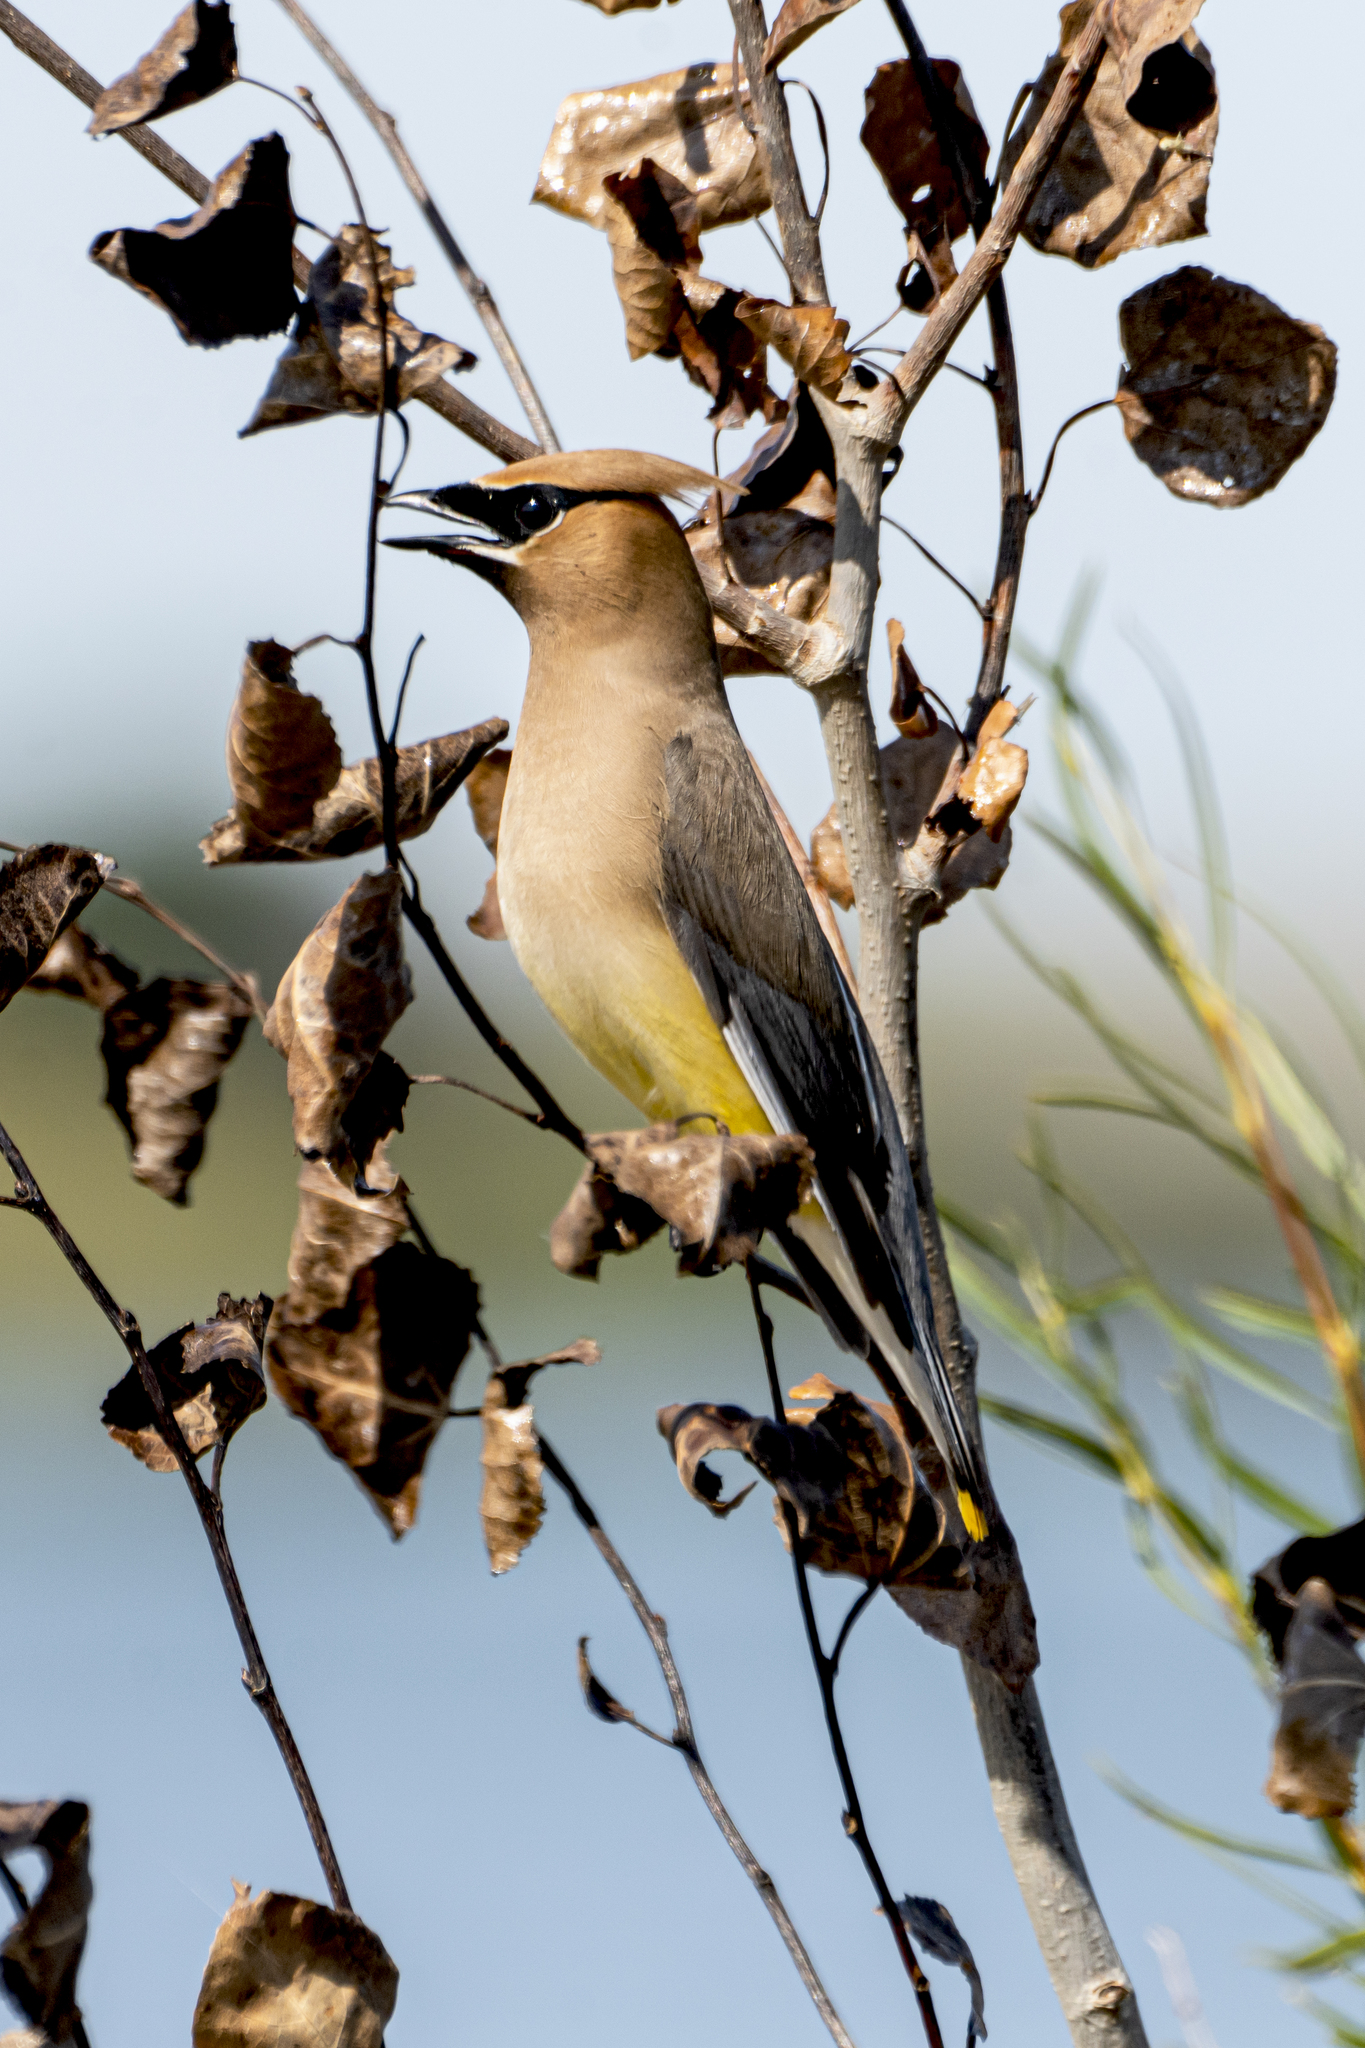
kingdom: Animalia
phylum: Chordata
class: Aves
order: Passeriformes
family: Bombycillidae
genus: Bombycilla
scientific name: Bombycilla cedrorum
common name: Cedar waxwing
